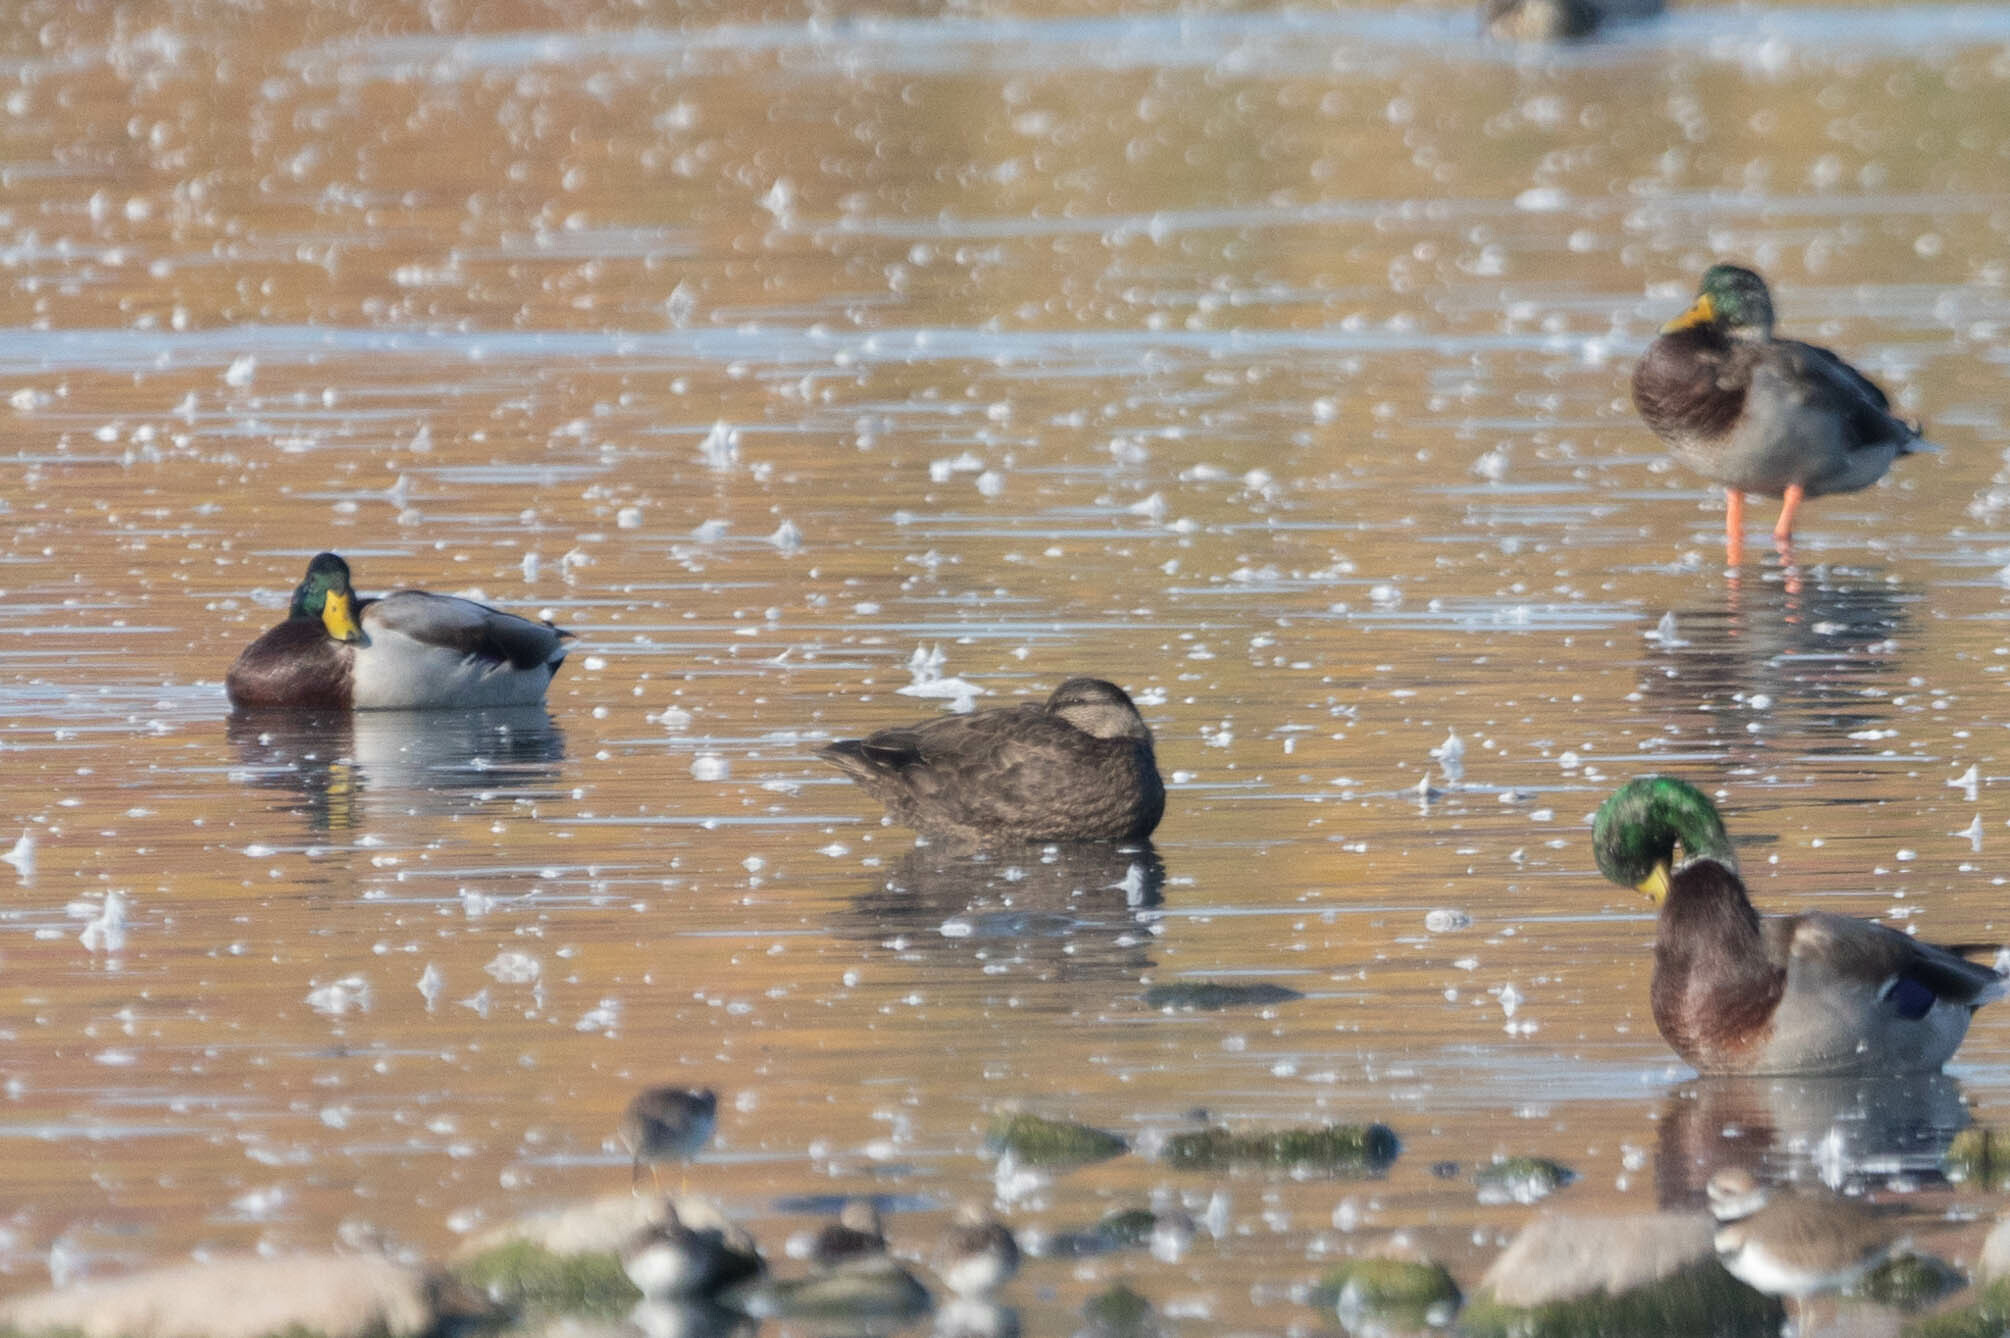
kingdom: Animalia
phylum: Chordata
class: Aves
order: Anseriformes
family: Anatidae
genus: Anas
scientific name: Anas rubripes
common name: American black duck
